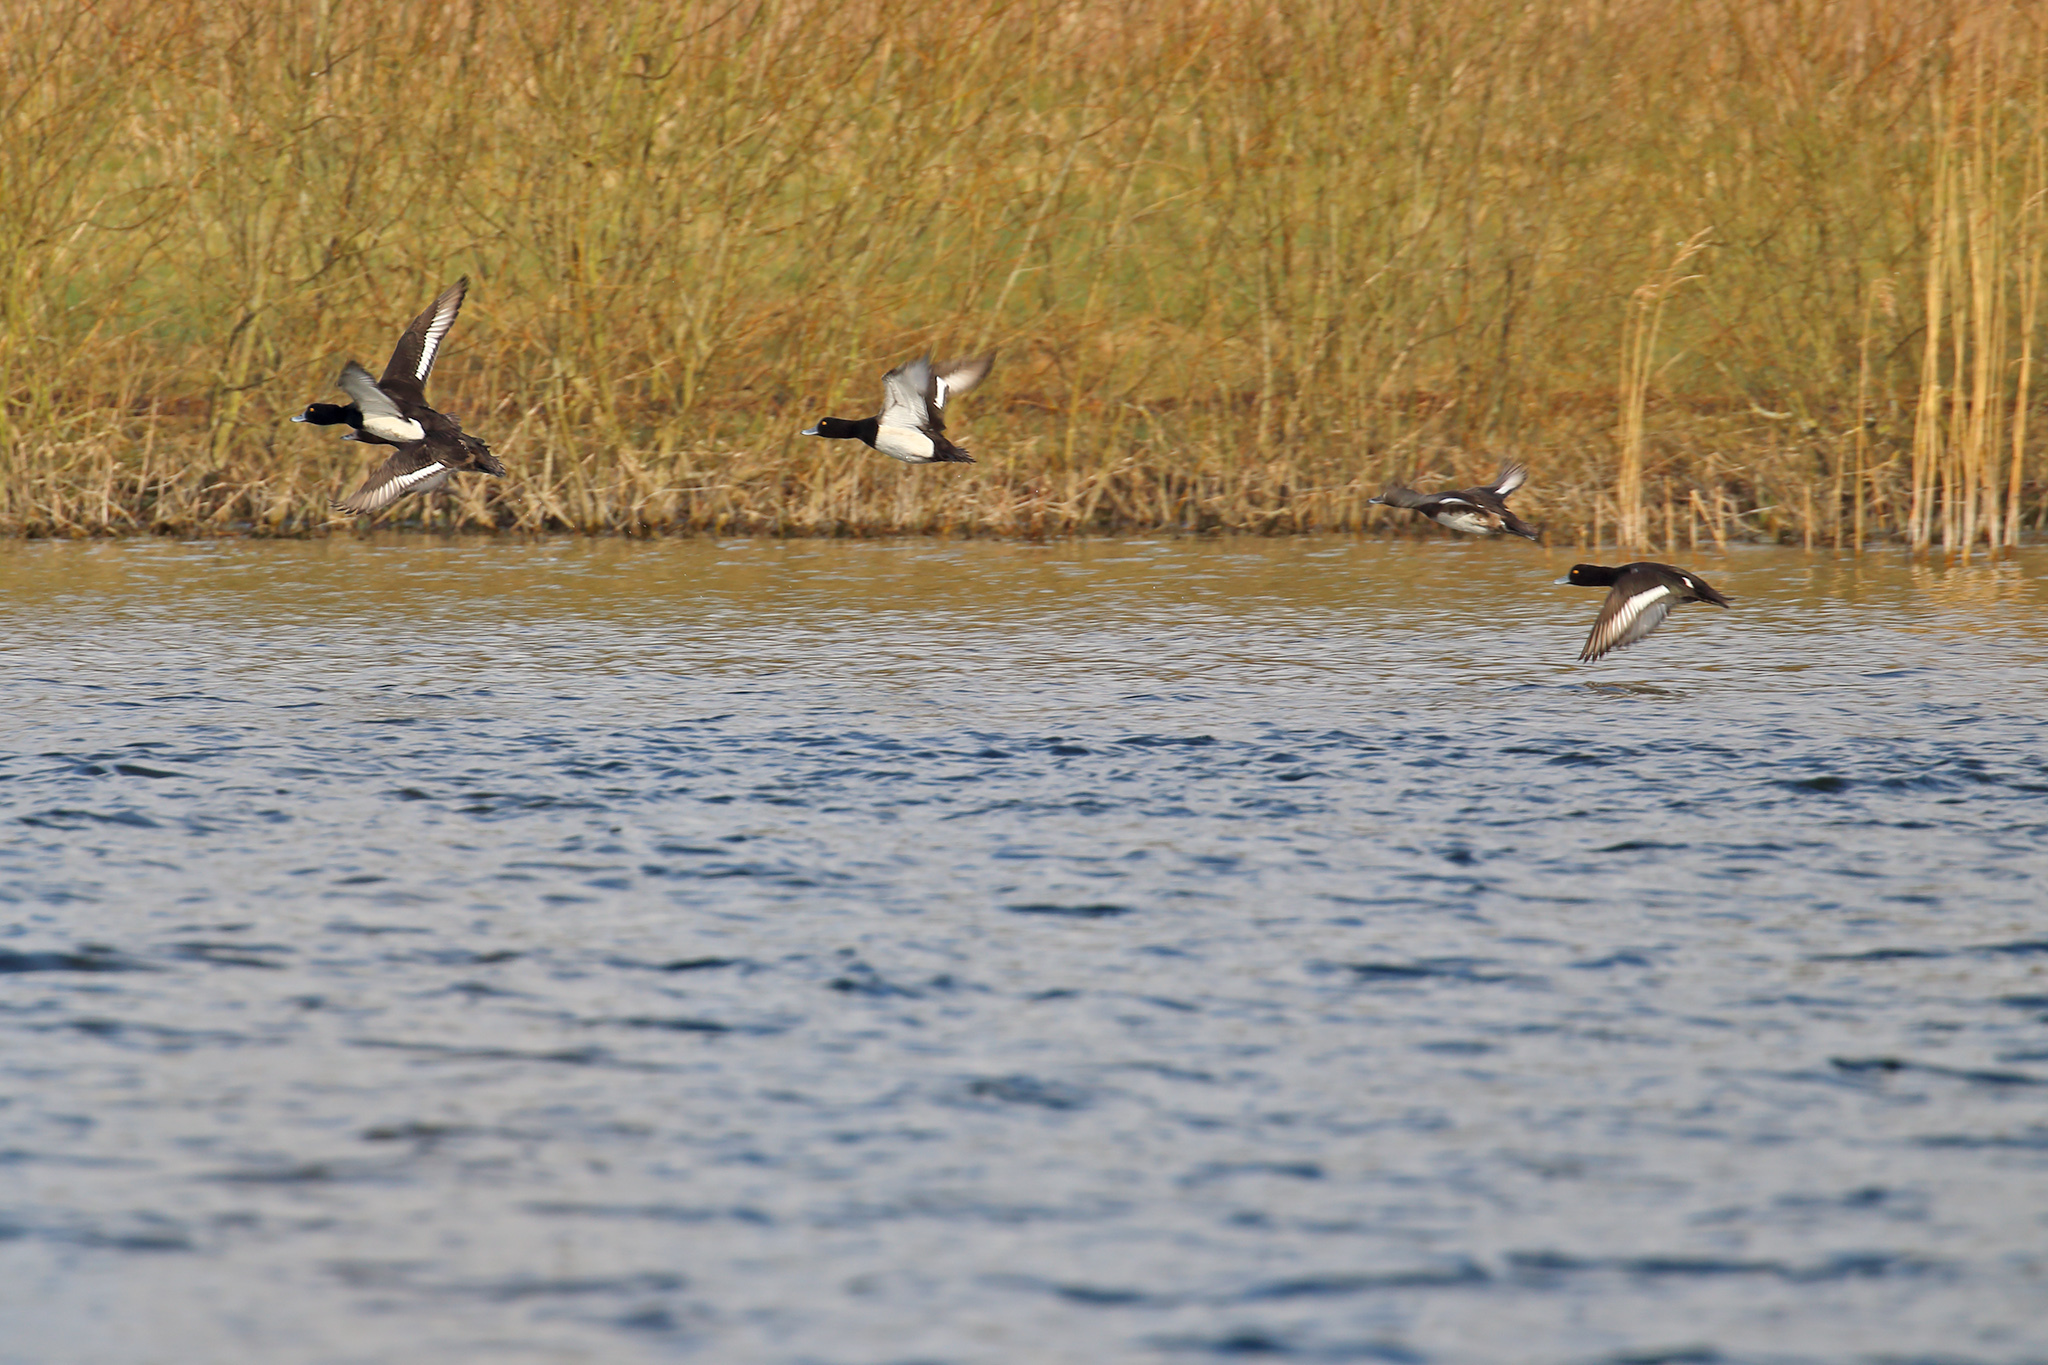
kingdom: Animalia
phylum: Chordata
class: Aves
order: Anseriformes
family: Anatidae
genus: Aythya
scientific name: Aythya fuligula
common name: Tufted duck
